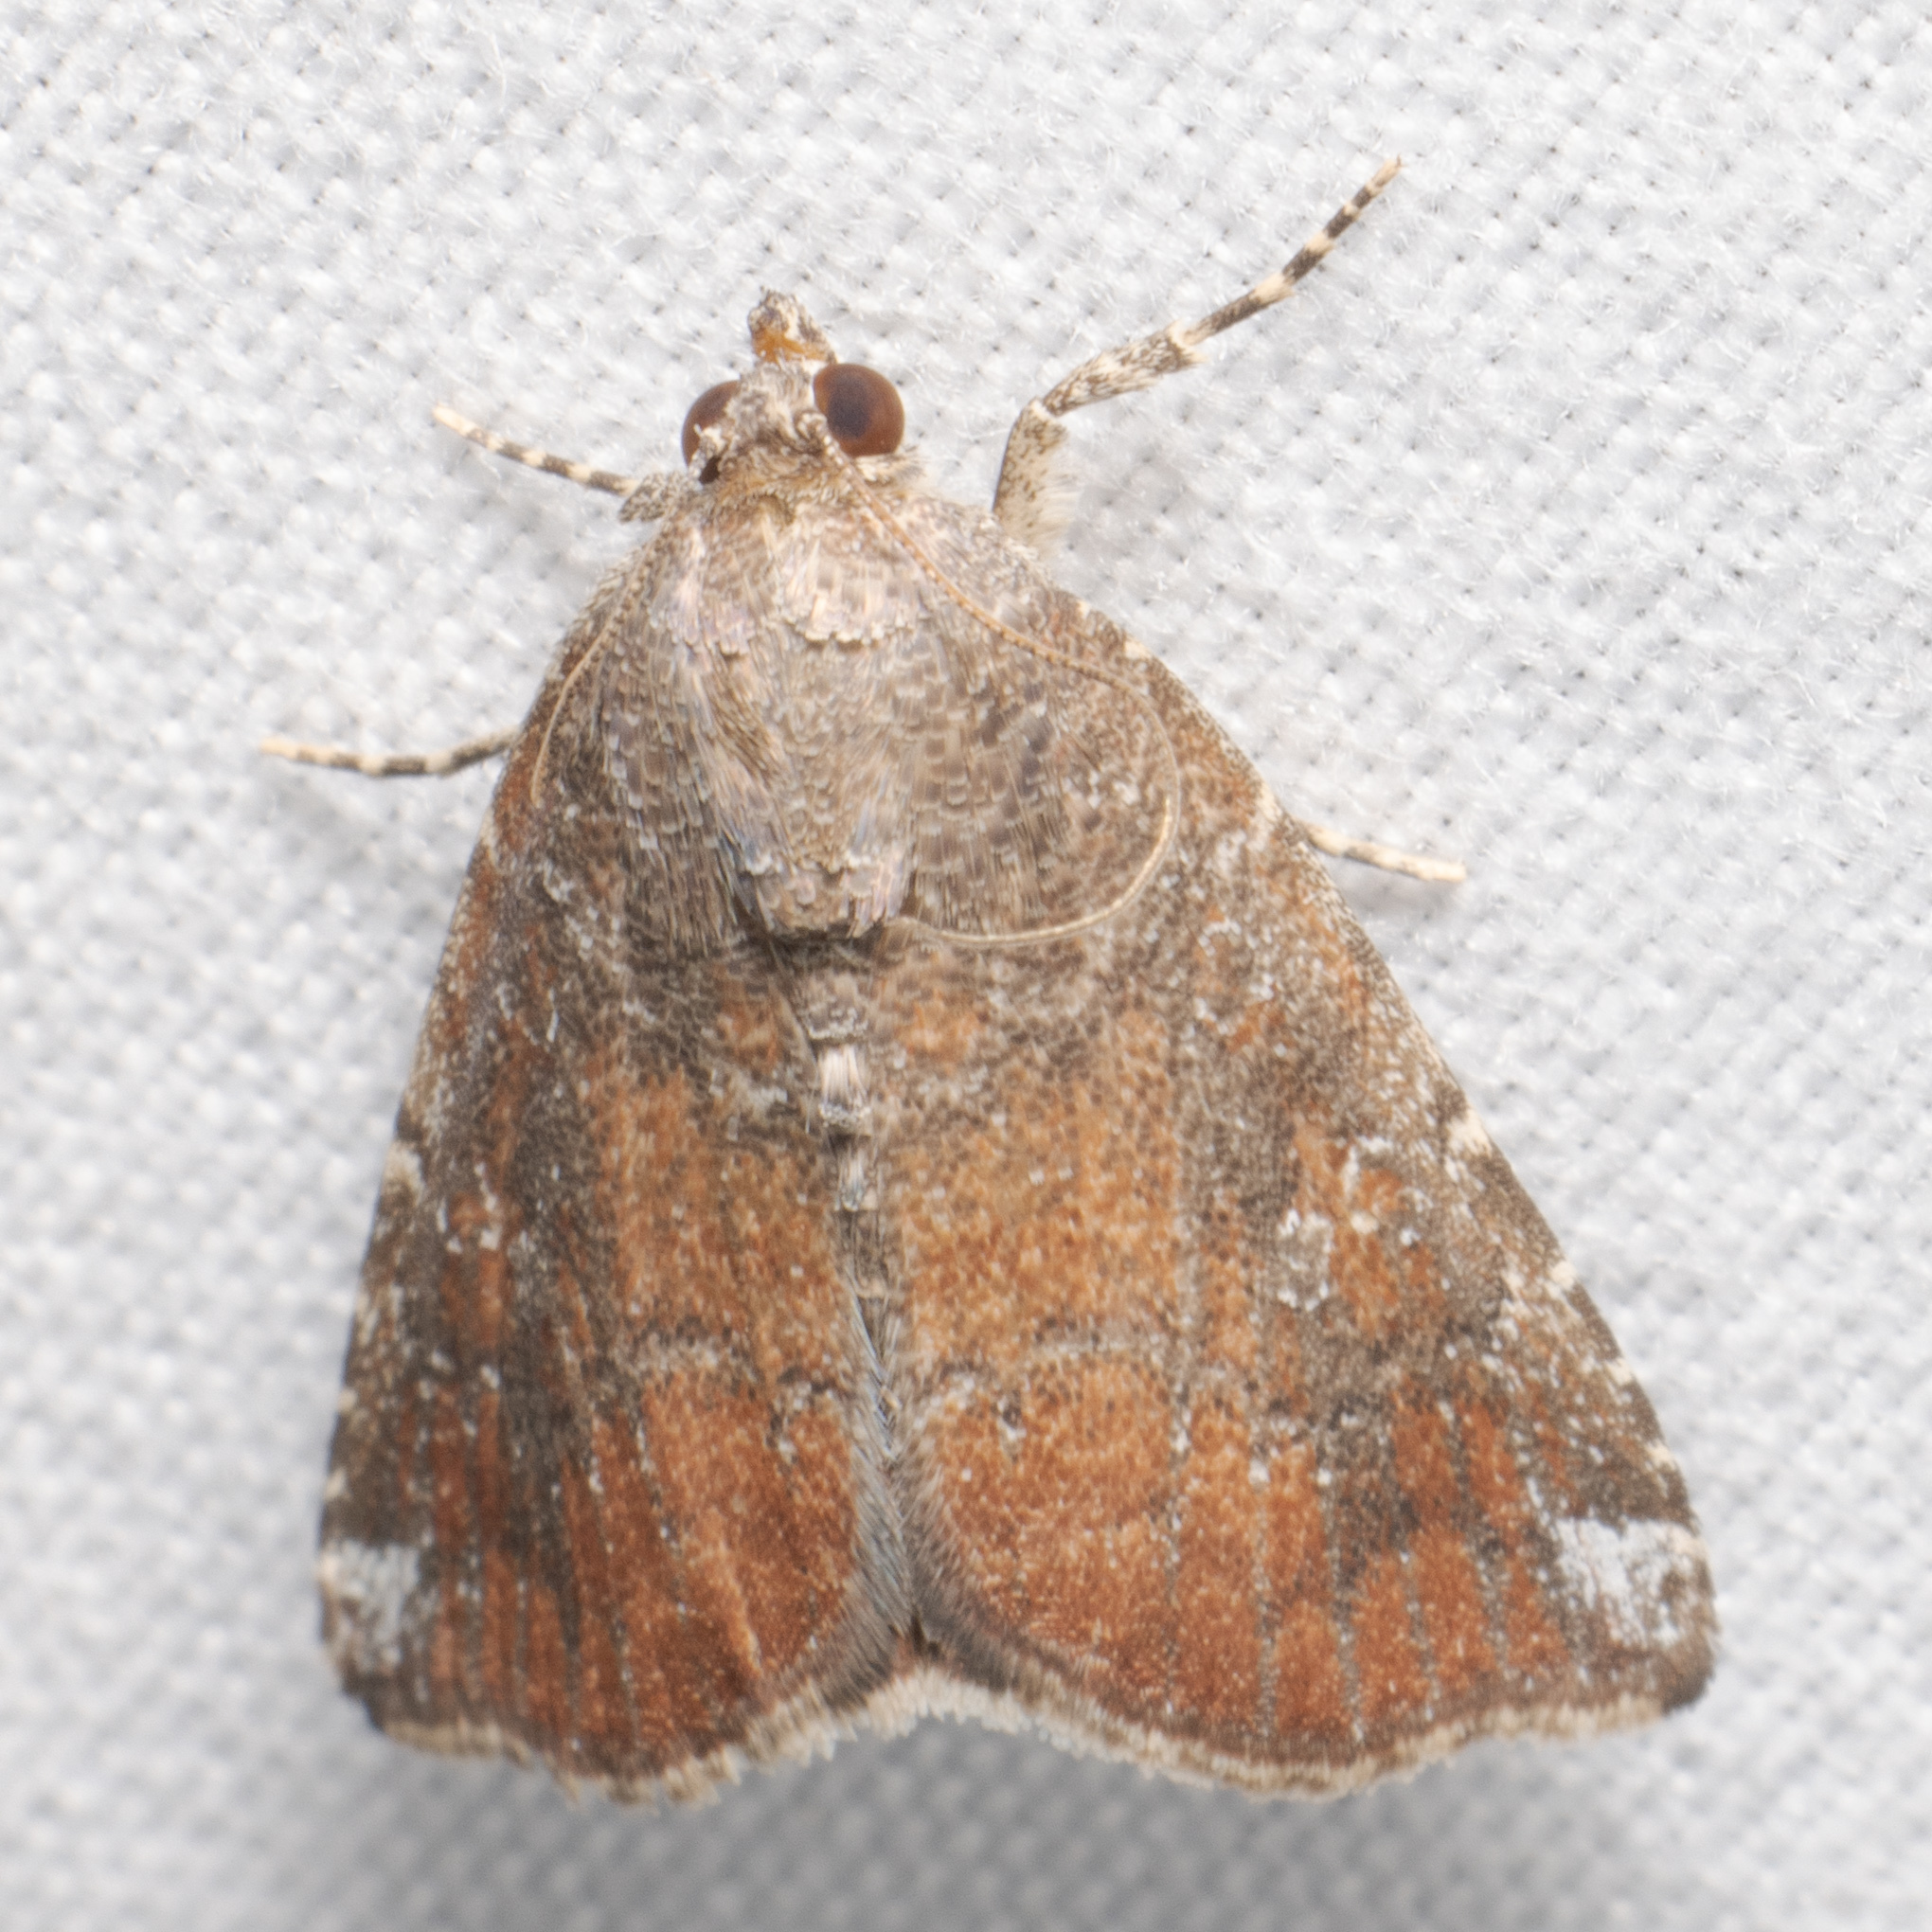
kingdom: Animalia
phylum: Arthropoda
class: Insecta
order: Lepidoptera
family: Noctuidae
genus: Amyna
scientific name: Amyna bullula
